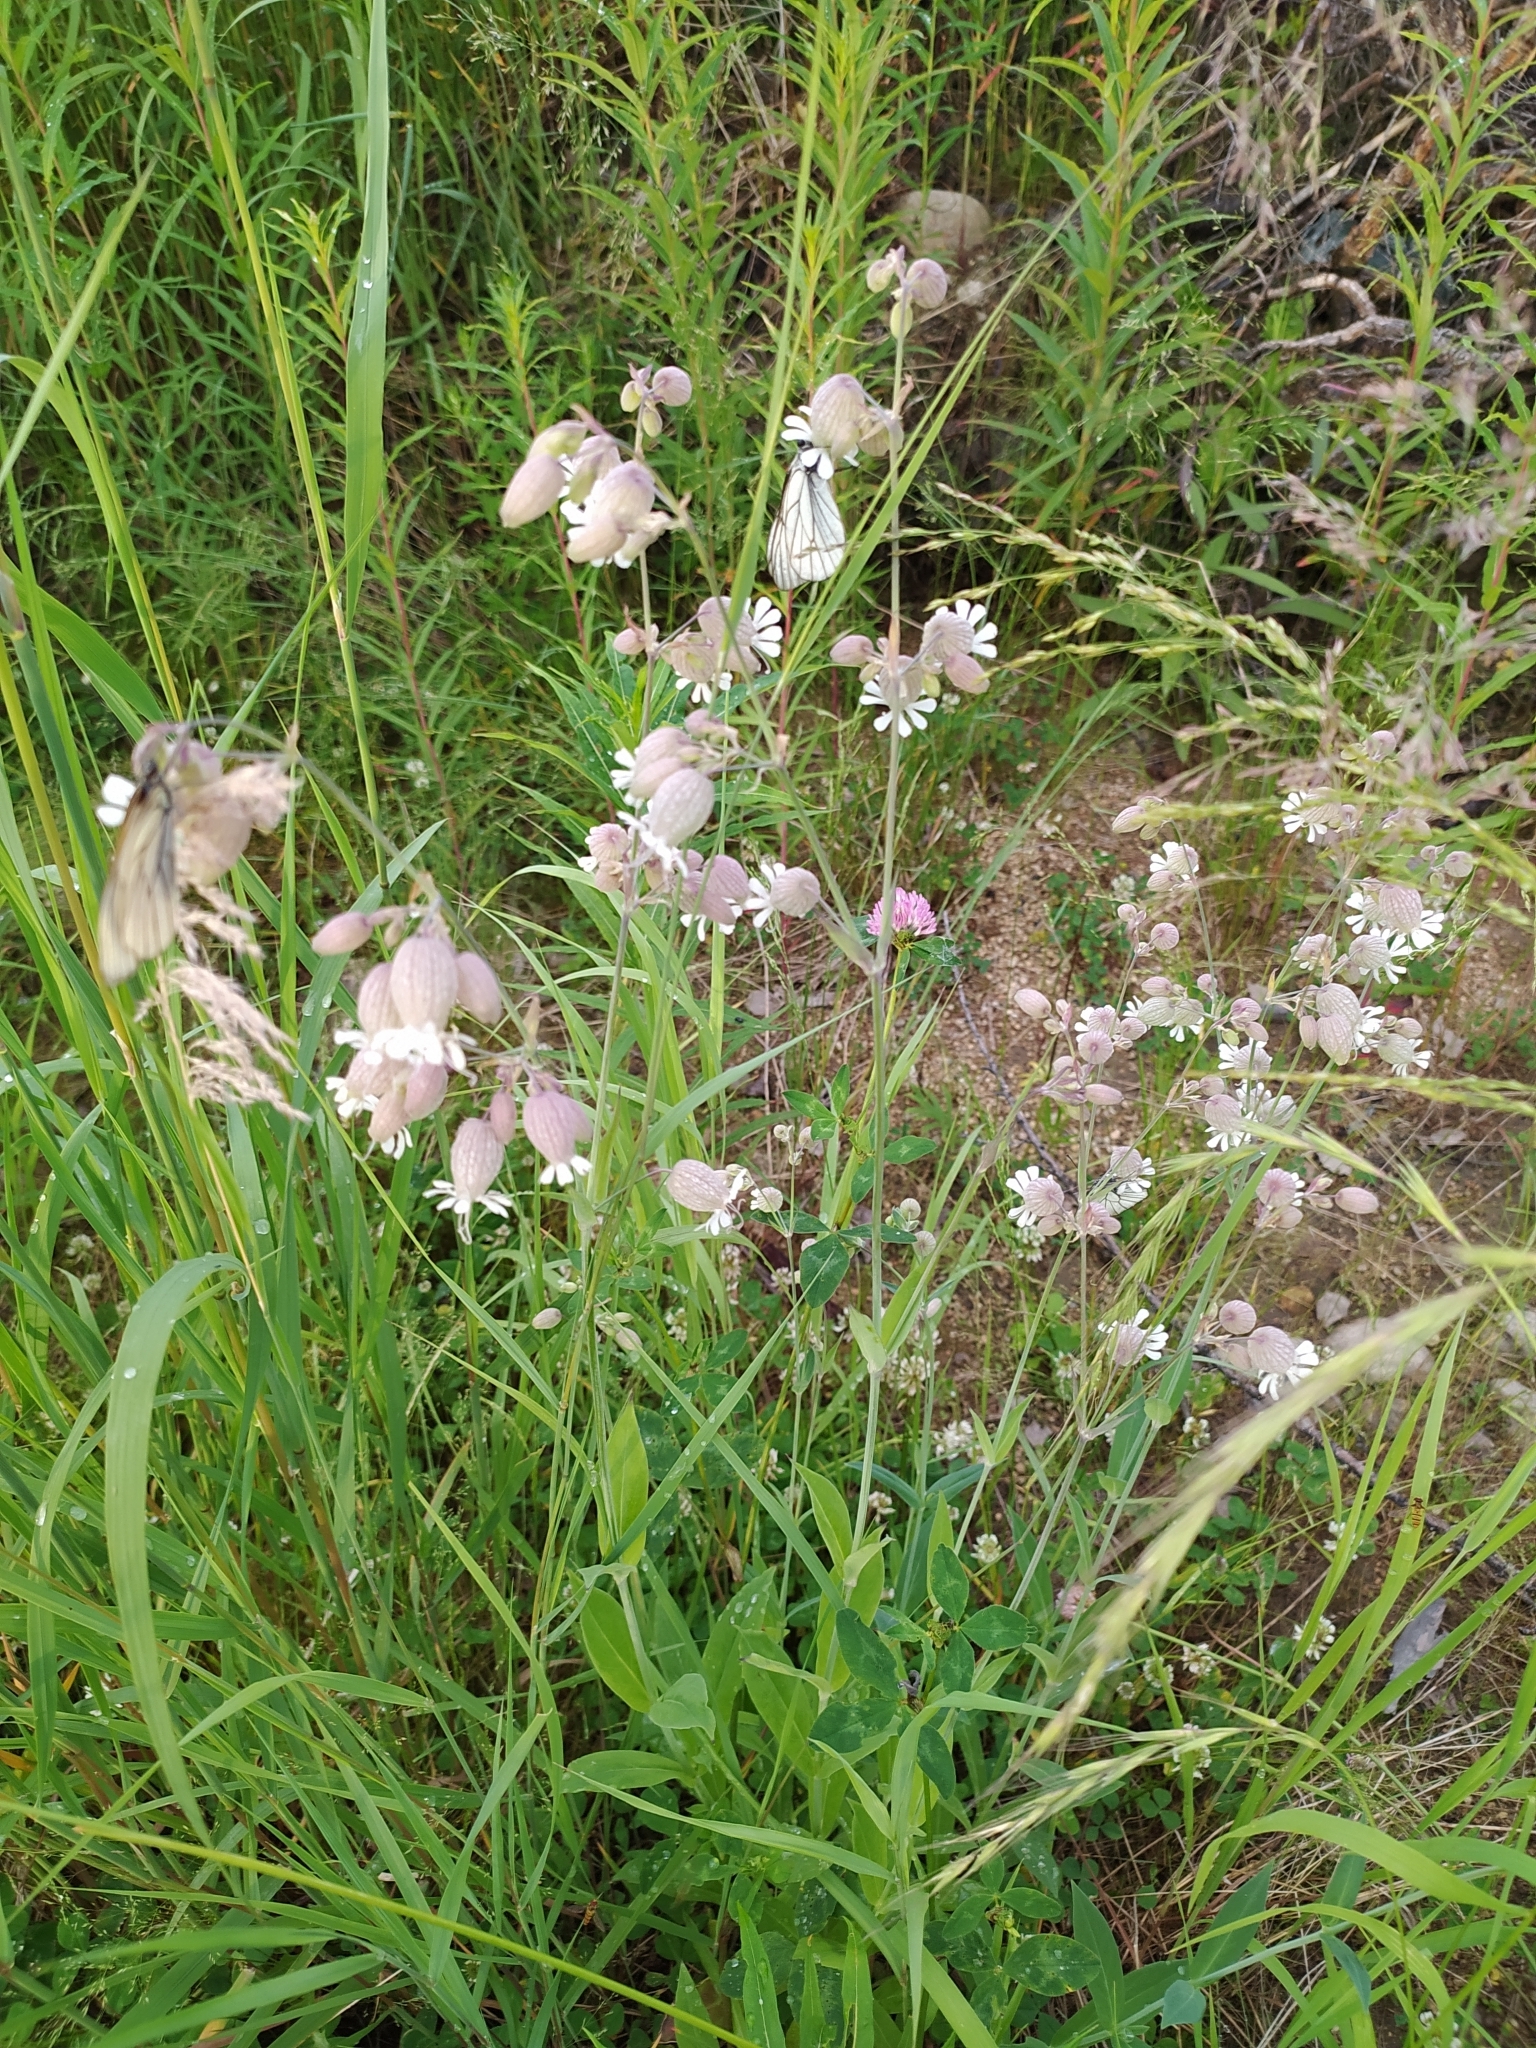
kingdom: Plantae
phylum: Tracheophyta
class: Magnoliopsida
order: Caryophyllales
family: Caryophyllaceae
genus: Silene
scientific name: Silene vulgaris
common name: Bladder campion
